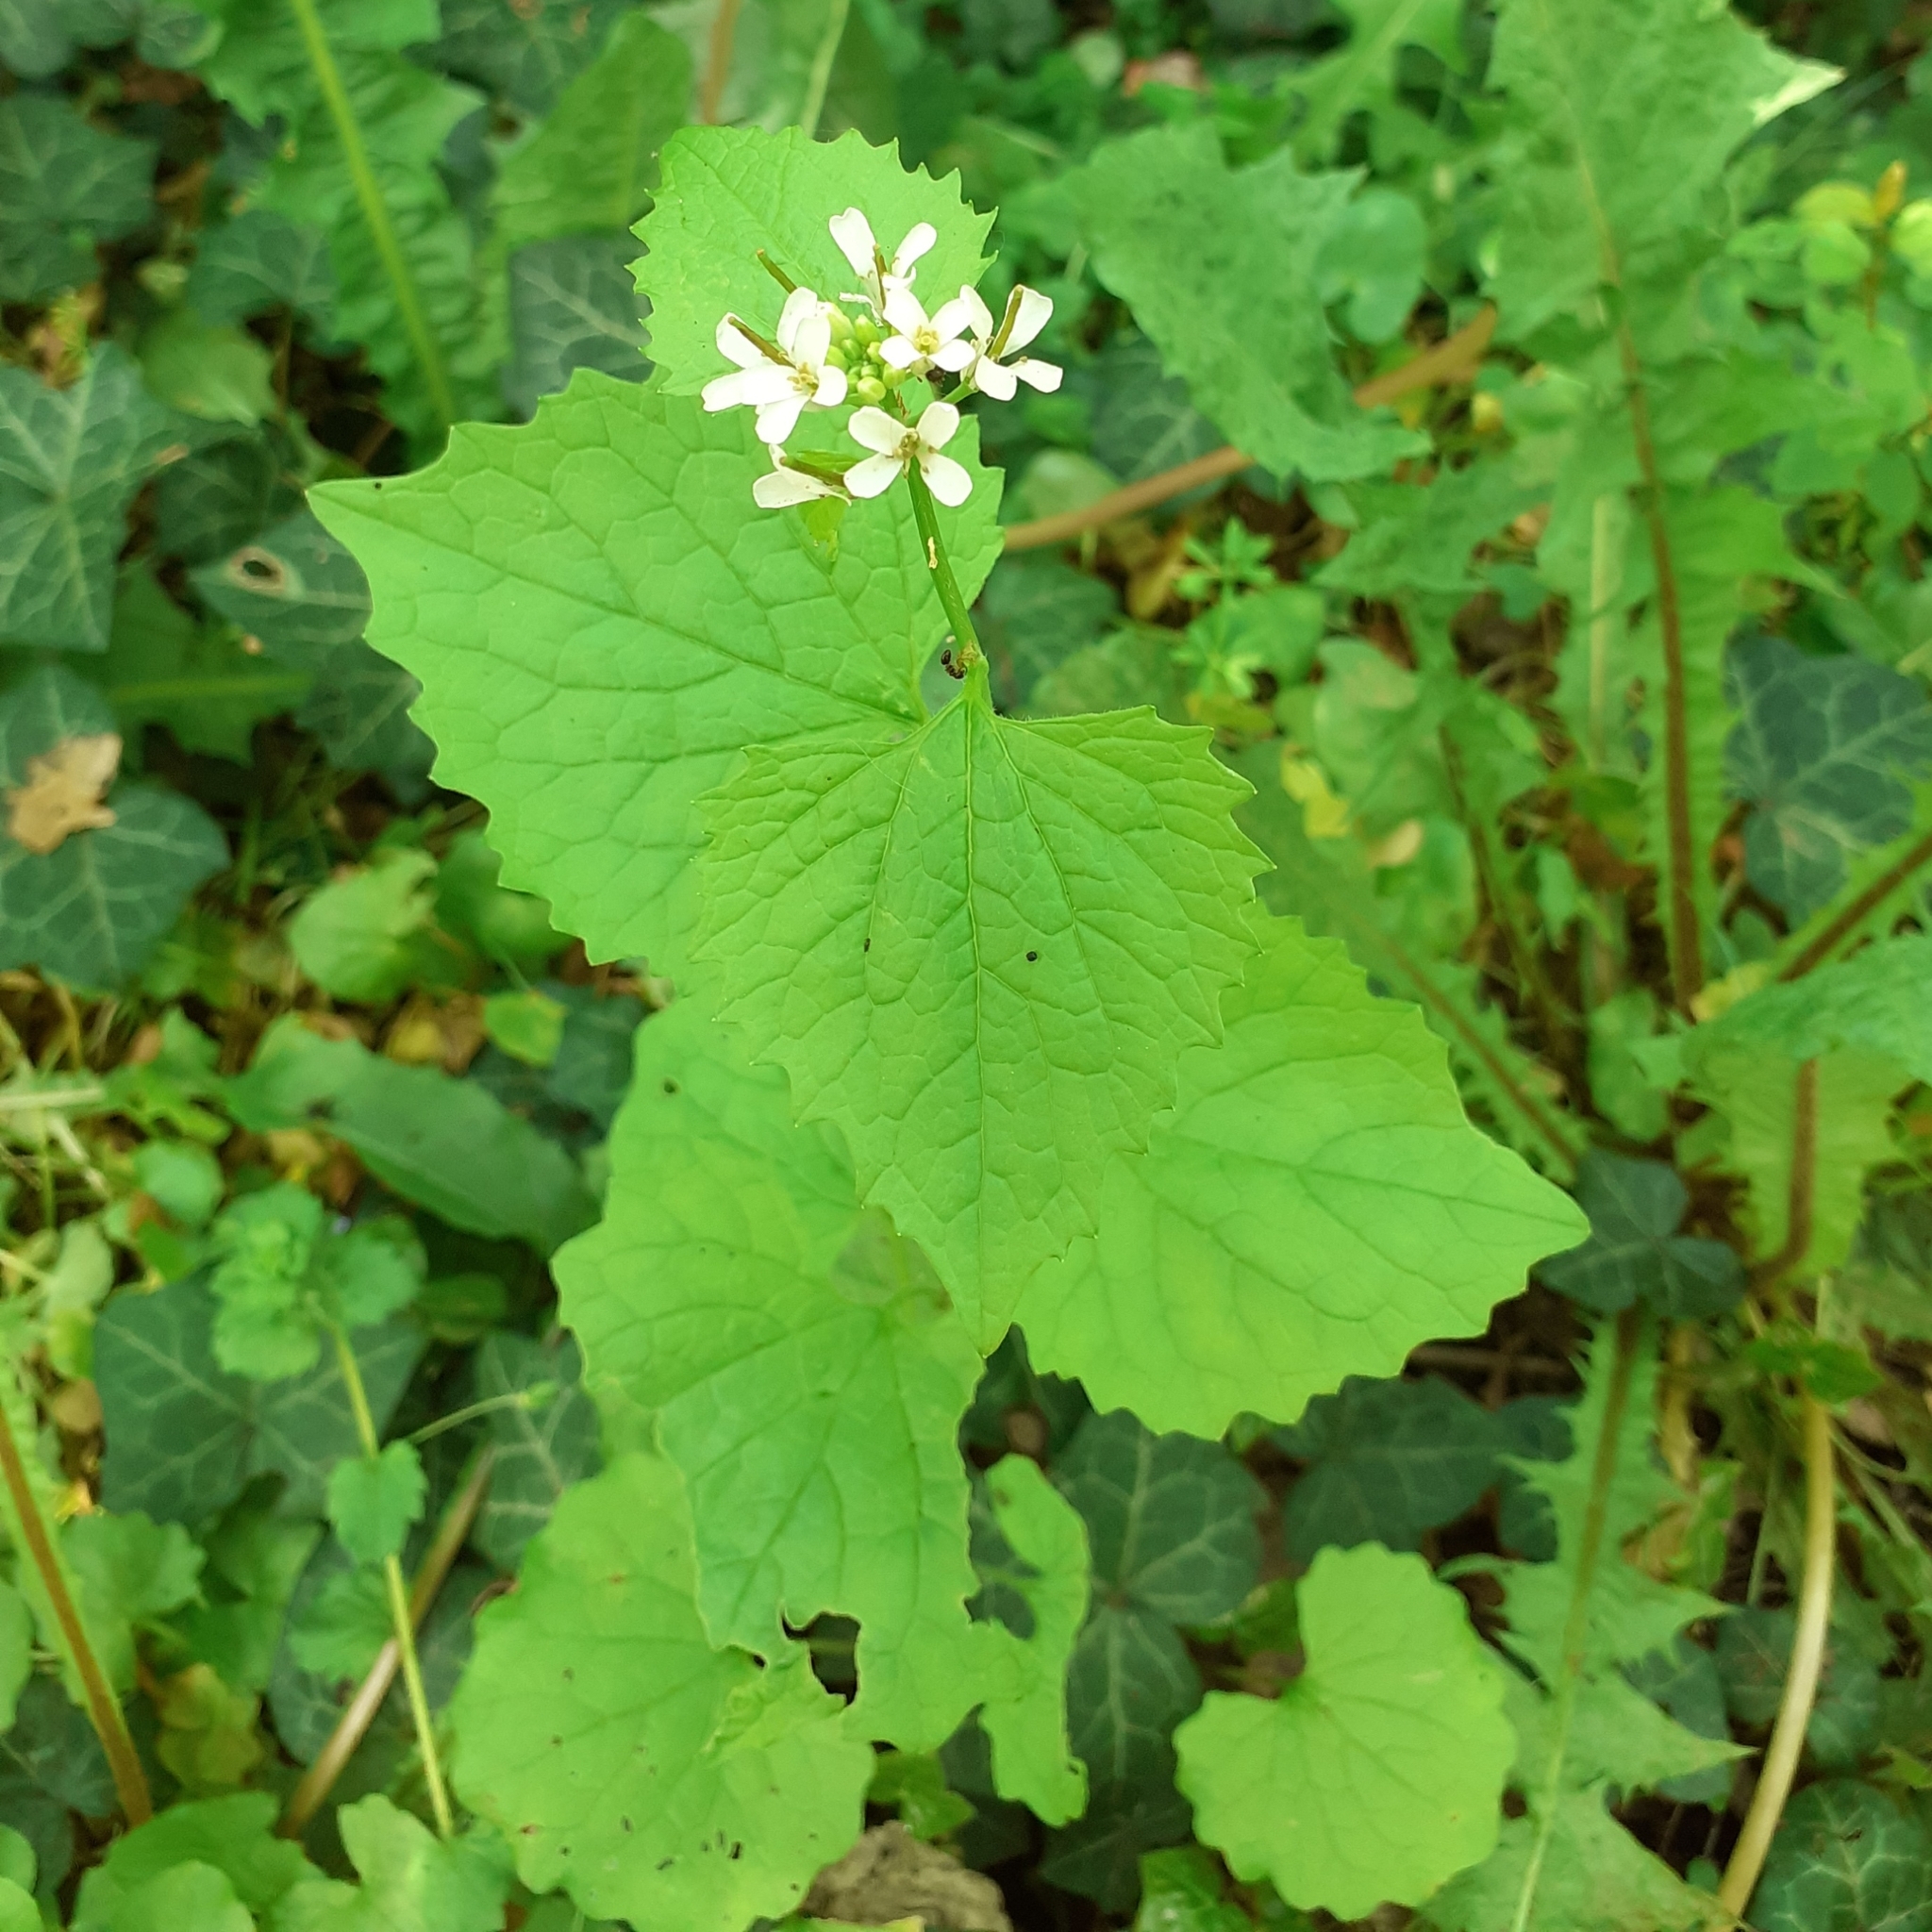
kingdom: Plantae
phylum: Tracheophyta
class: Magnoliopsida
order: Brassicales
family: Brassicaceae
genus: Alliaria
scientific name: Alliaria petiolata
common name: Garlic mustard
